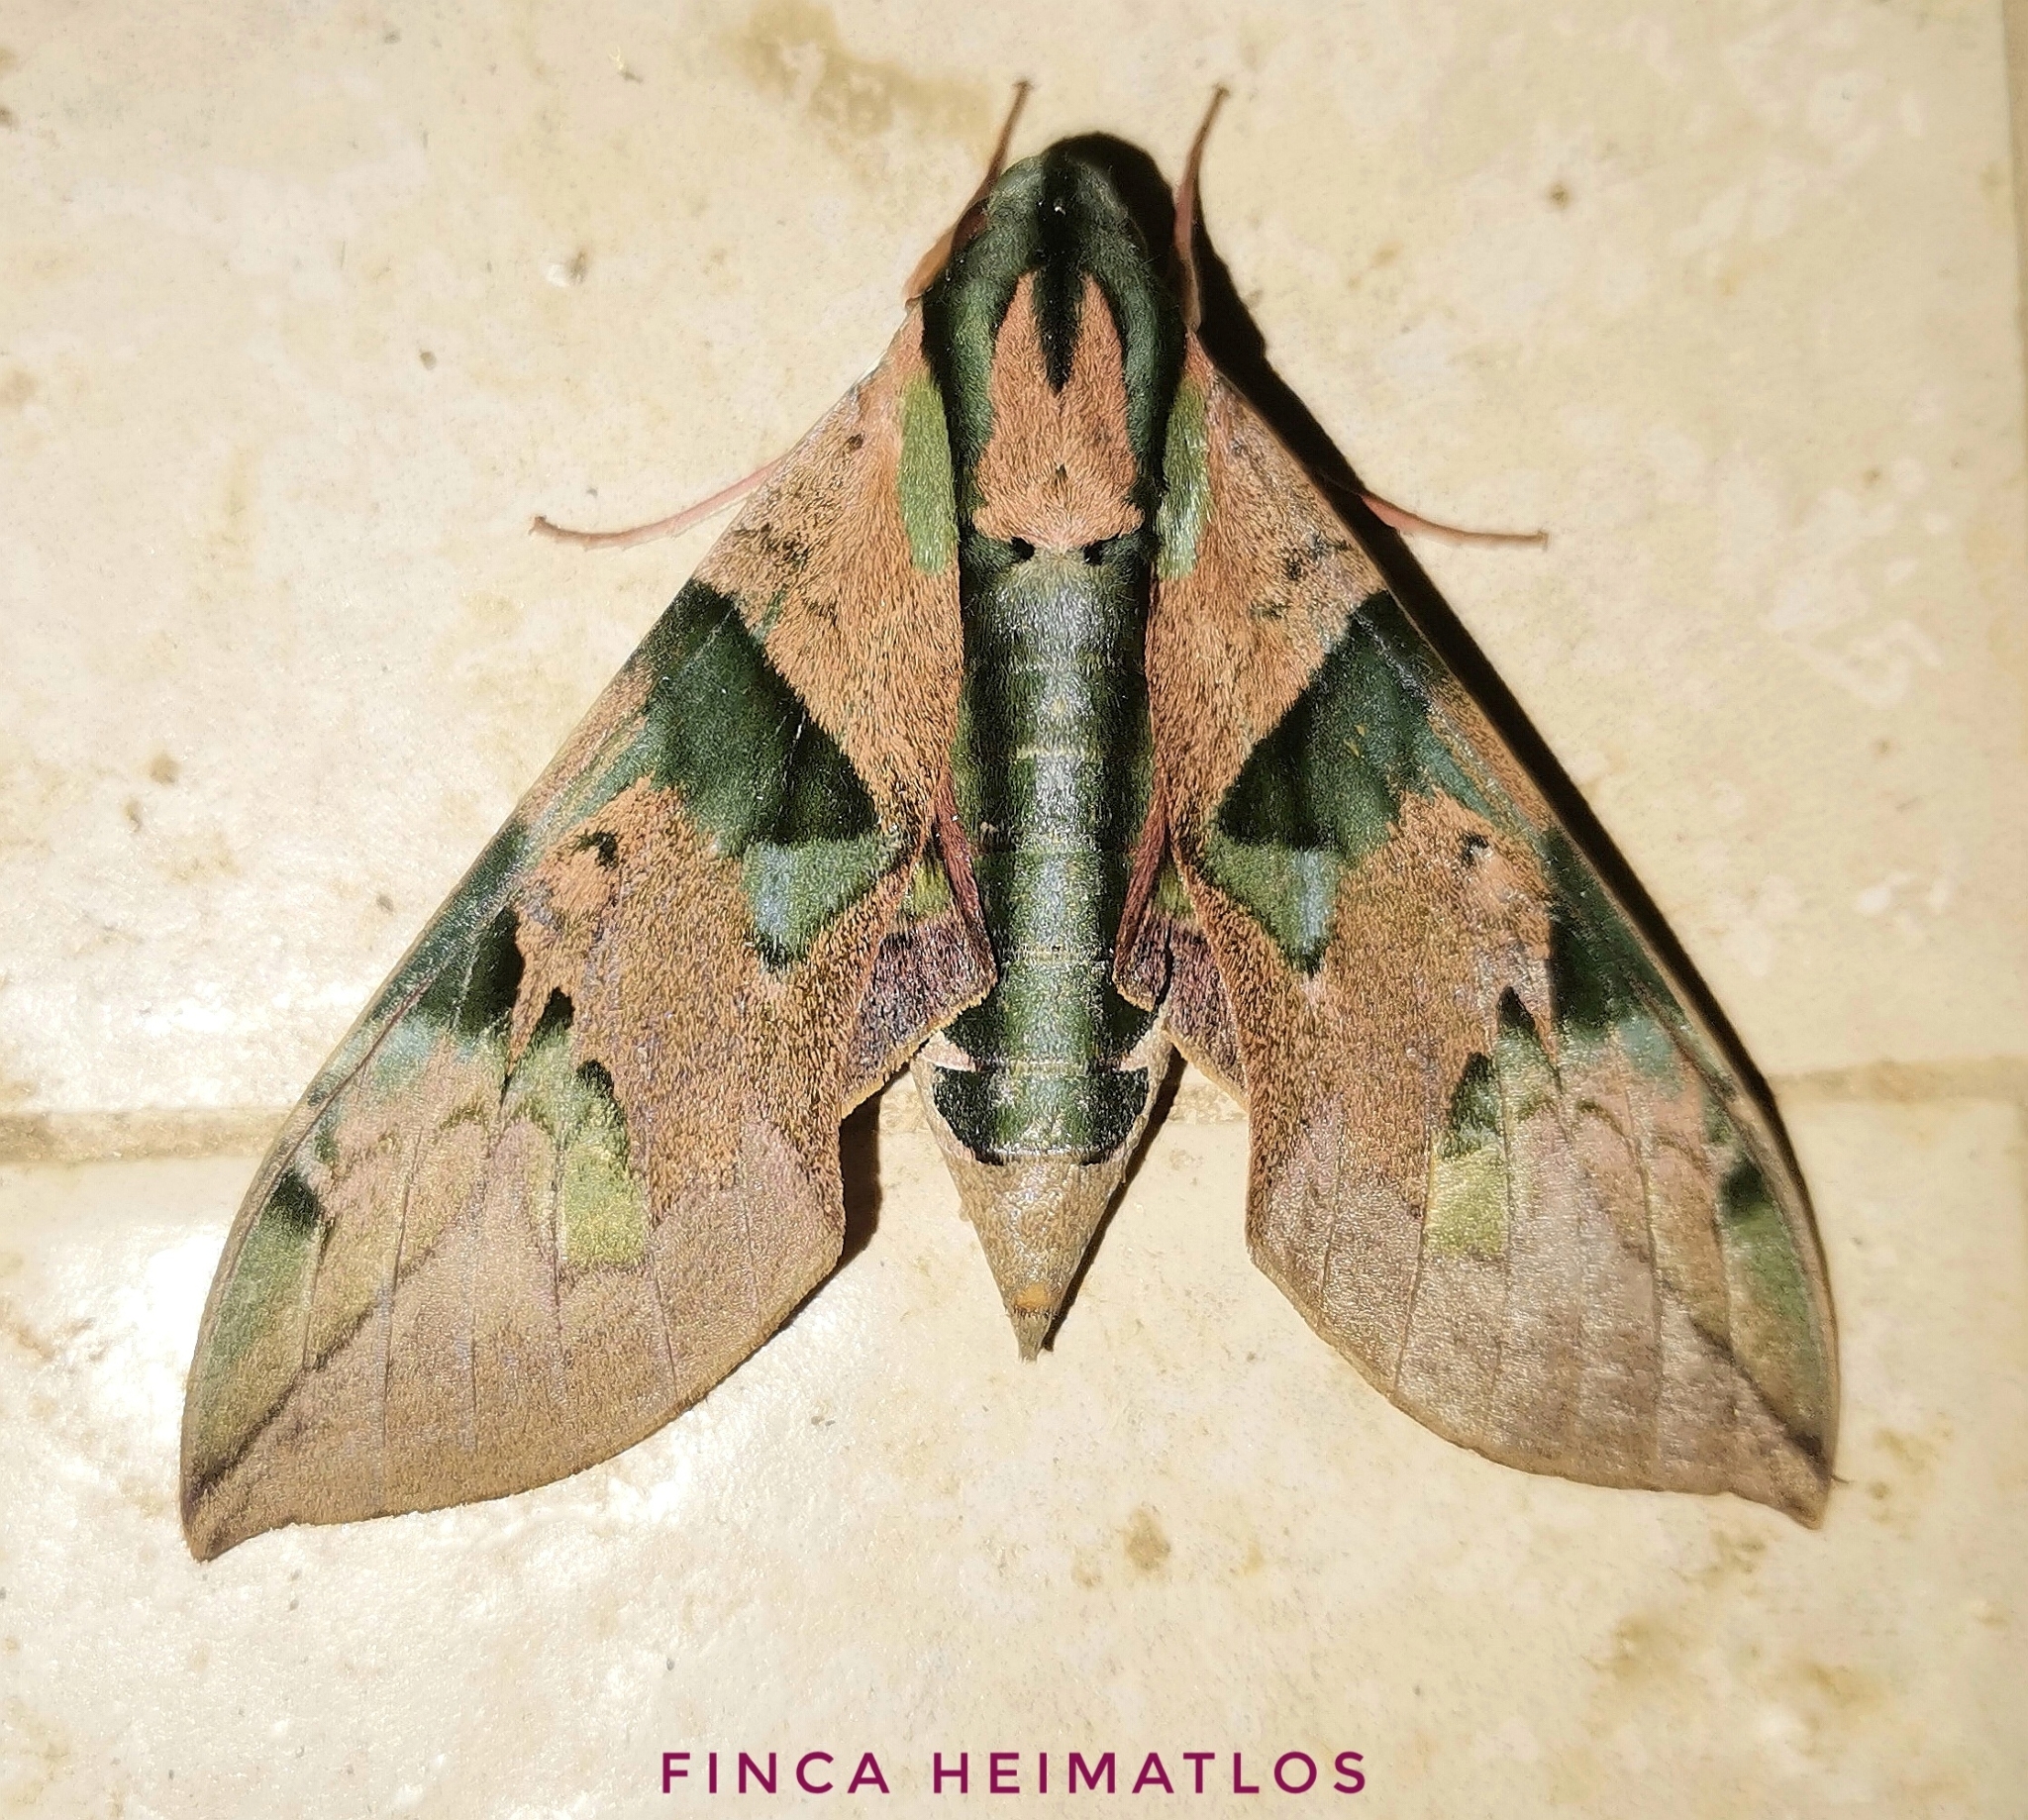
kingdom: Animalia
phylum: Arthropoda
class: Insecta
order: Lepidoptera
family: Sphingidae
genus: Eumorpha
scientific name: Eumorpha capronnieri
